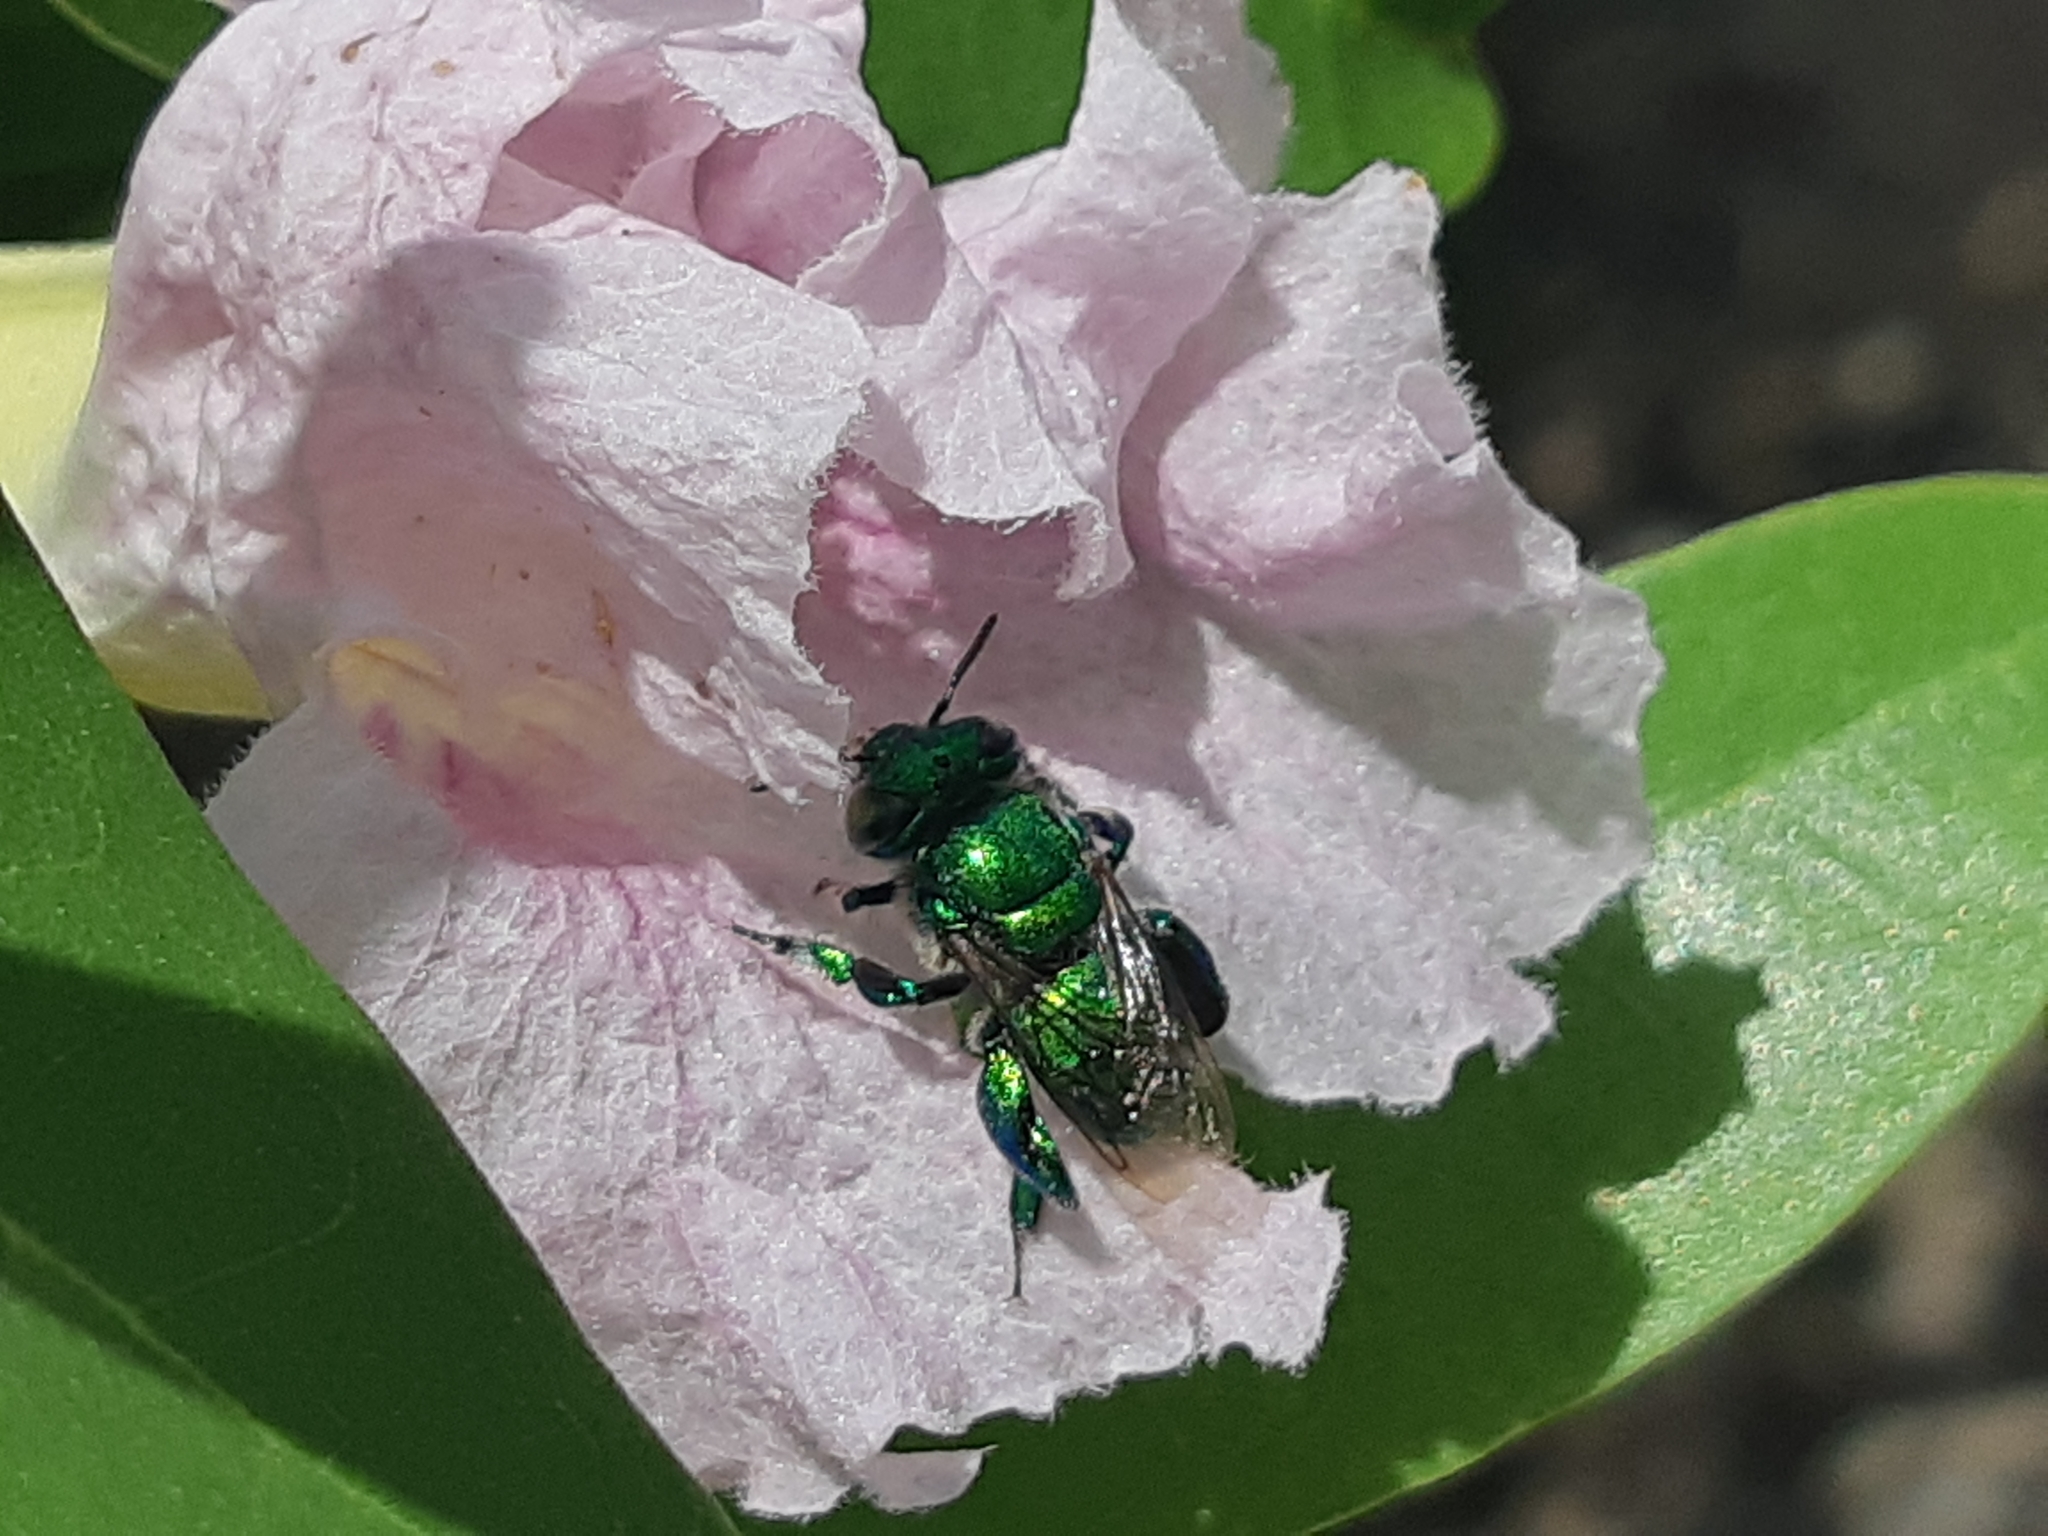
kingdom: Animalia
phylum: Arthropoda
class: Insecta
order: Hymenoptera
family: Apidae
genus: Euglossa
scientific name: Euglossa
